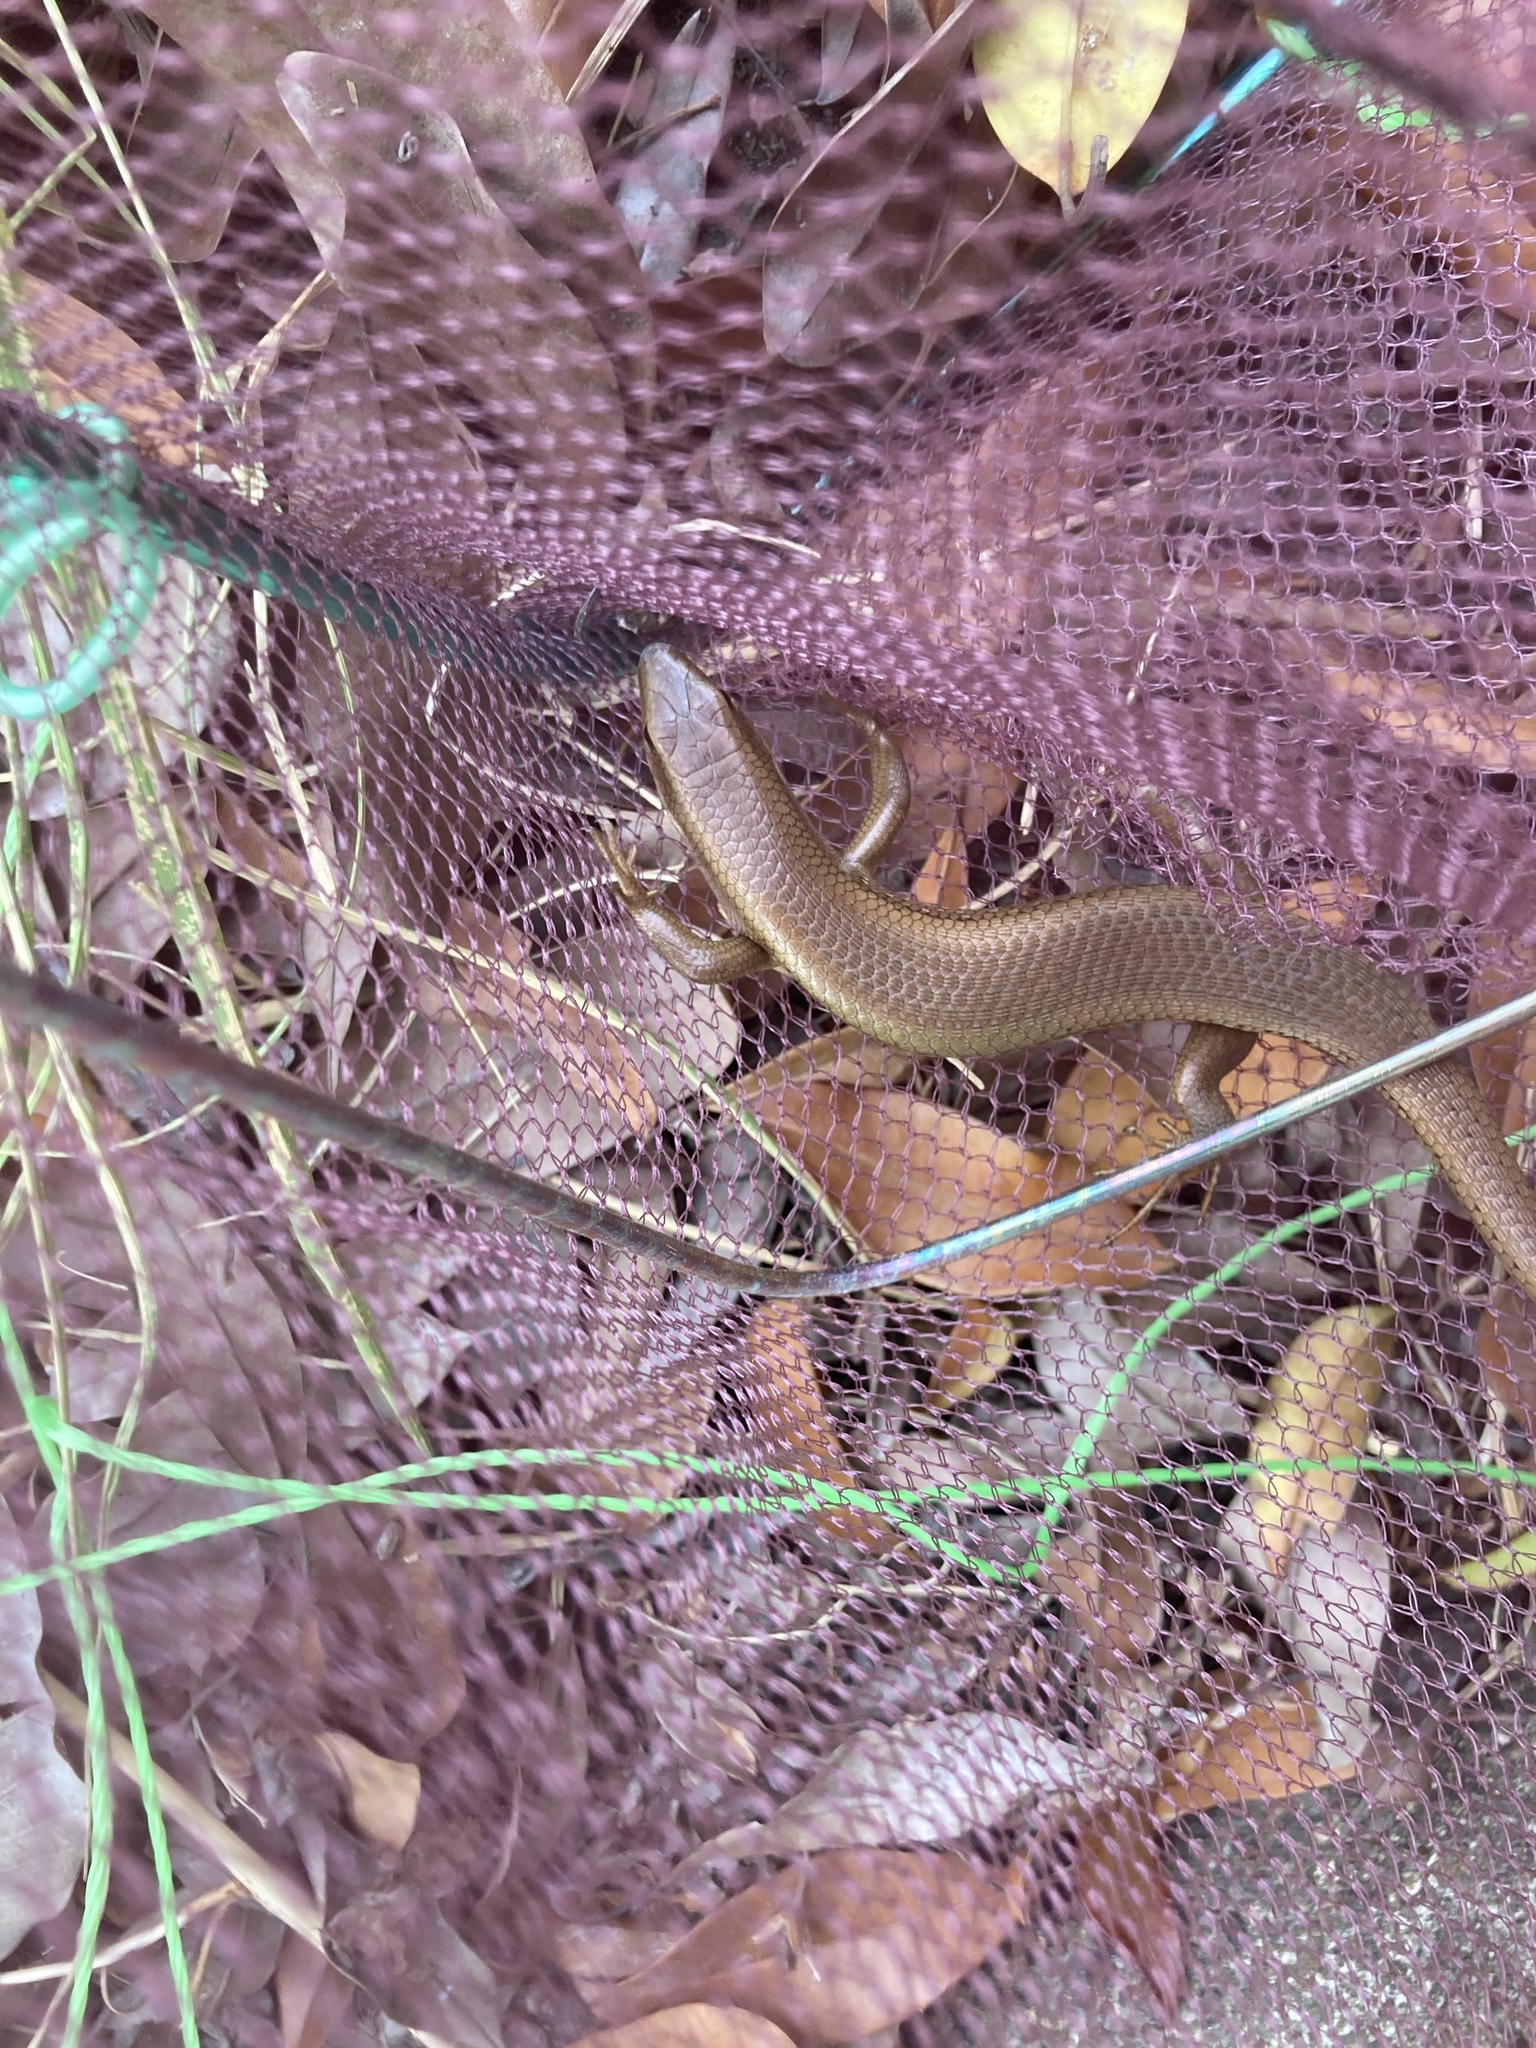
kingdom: Animalia
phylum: Chordata
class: Squamata
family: Scincidae
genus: Eutropis
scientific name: Eutropis multifasciata
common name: Common mabuya
